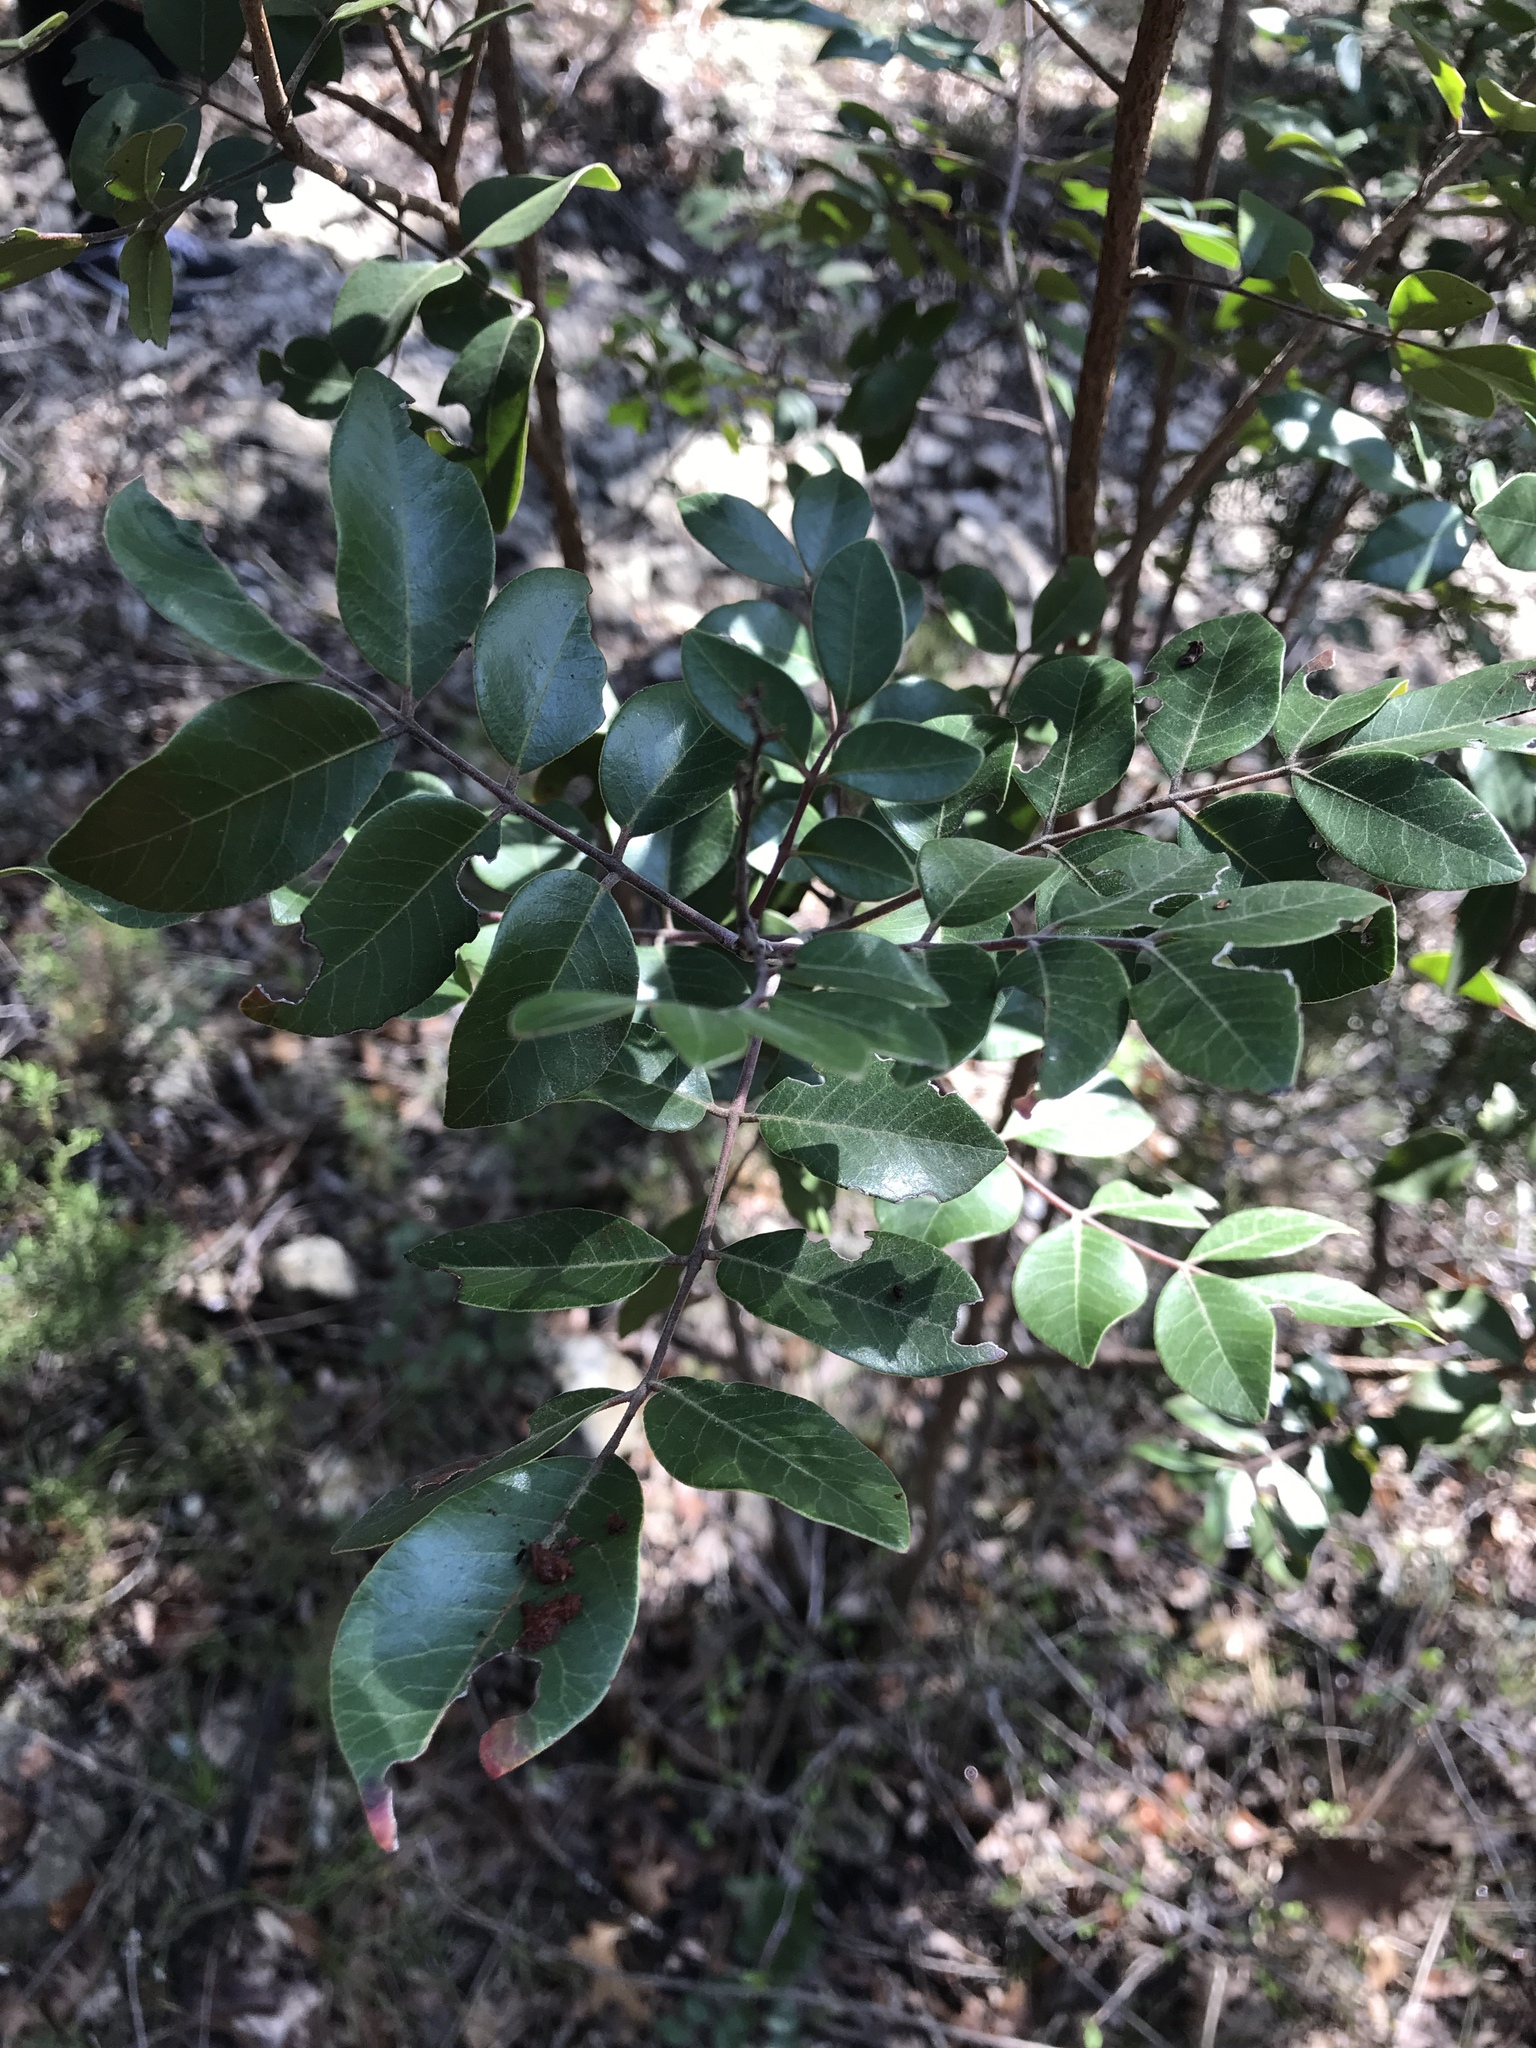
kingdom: Plantae
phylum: Tracheophyta
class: Magnoliopsida
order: Sapindales
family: Anacardiaceae
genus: Rhus
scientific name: Rhus virens
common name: Evergreen sumac
